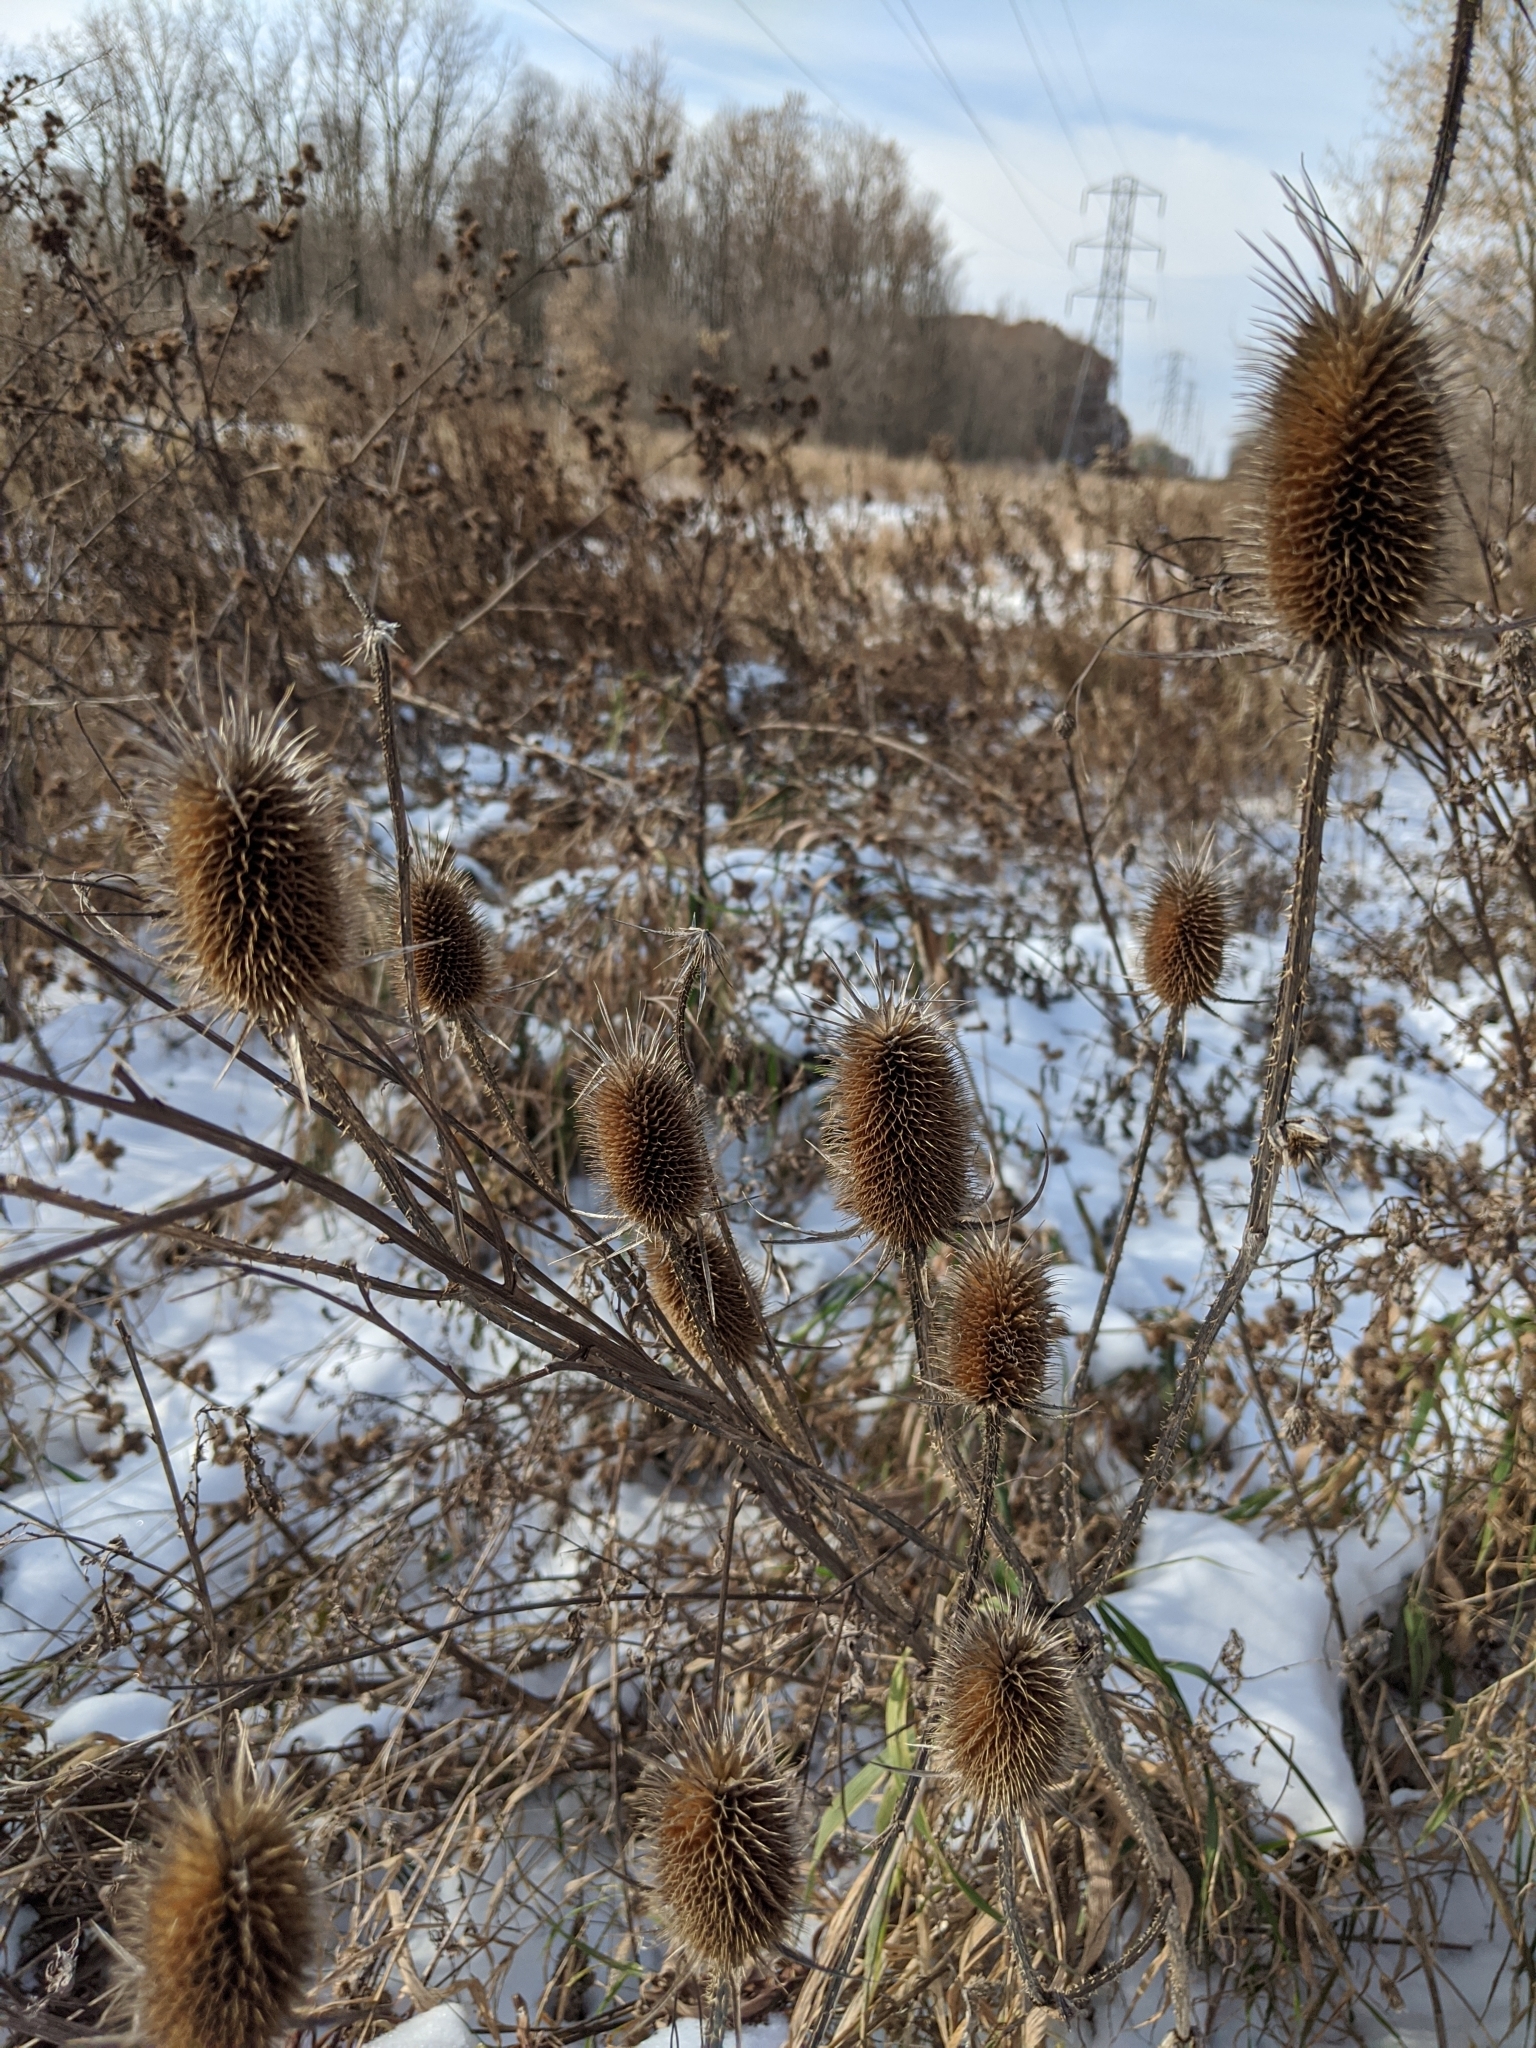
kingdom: Plantae
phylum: Tracheophyta
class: Magnoliopsida
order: Dipsacales
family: Caprifoliaceae
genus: Dipsacus
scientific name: Dipsacus laciniatus
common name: Cut-leaved teasel
